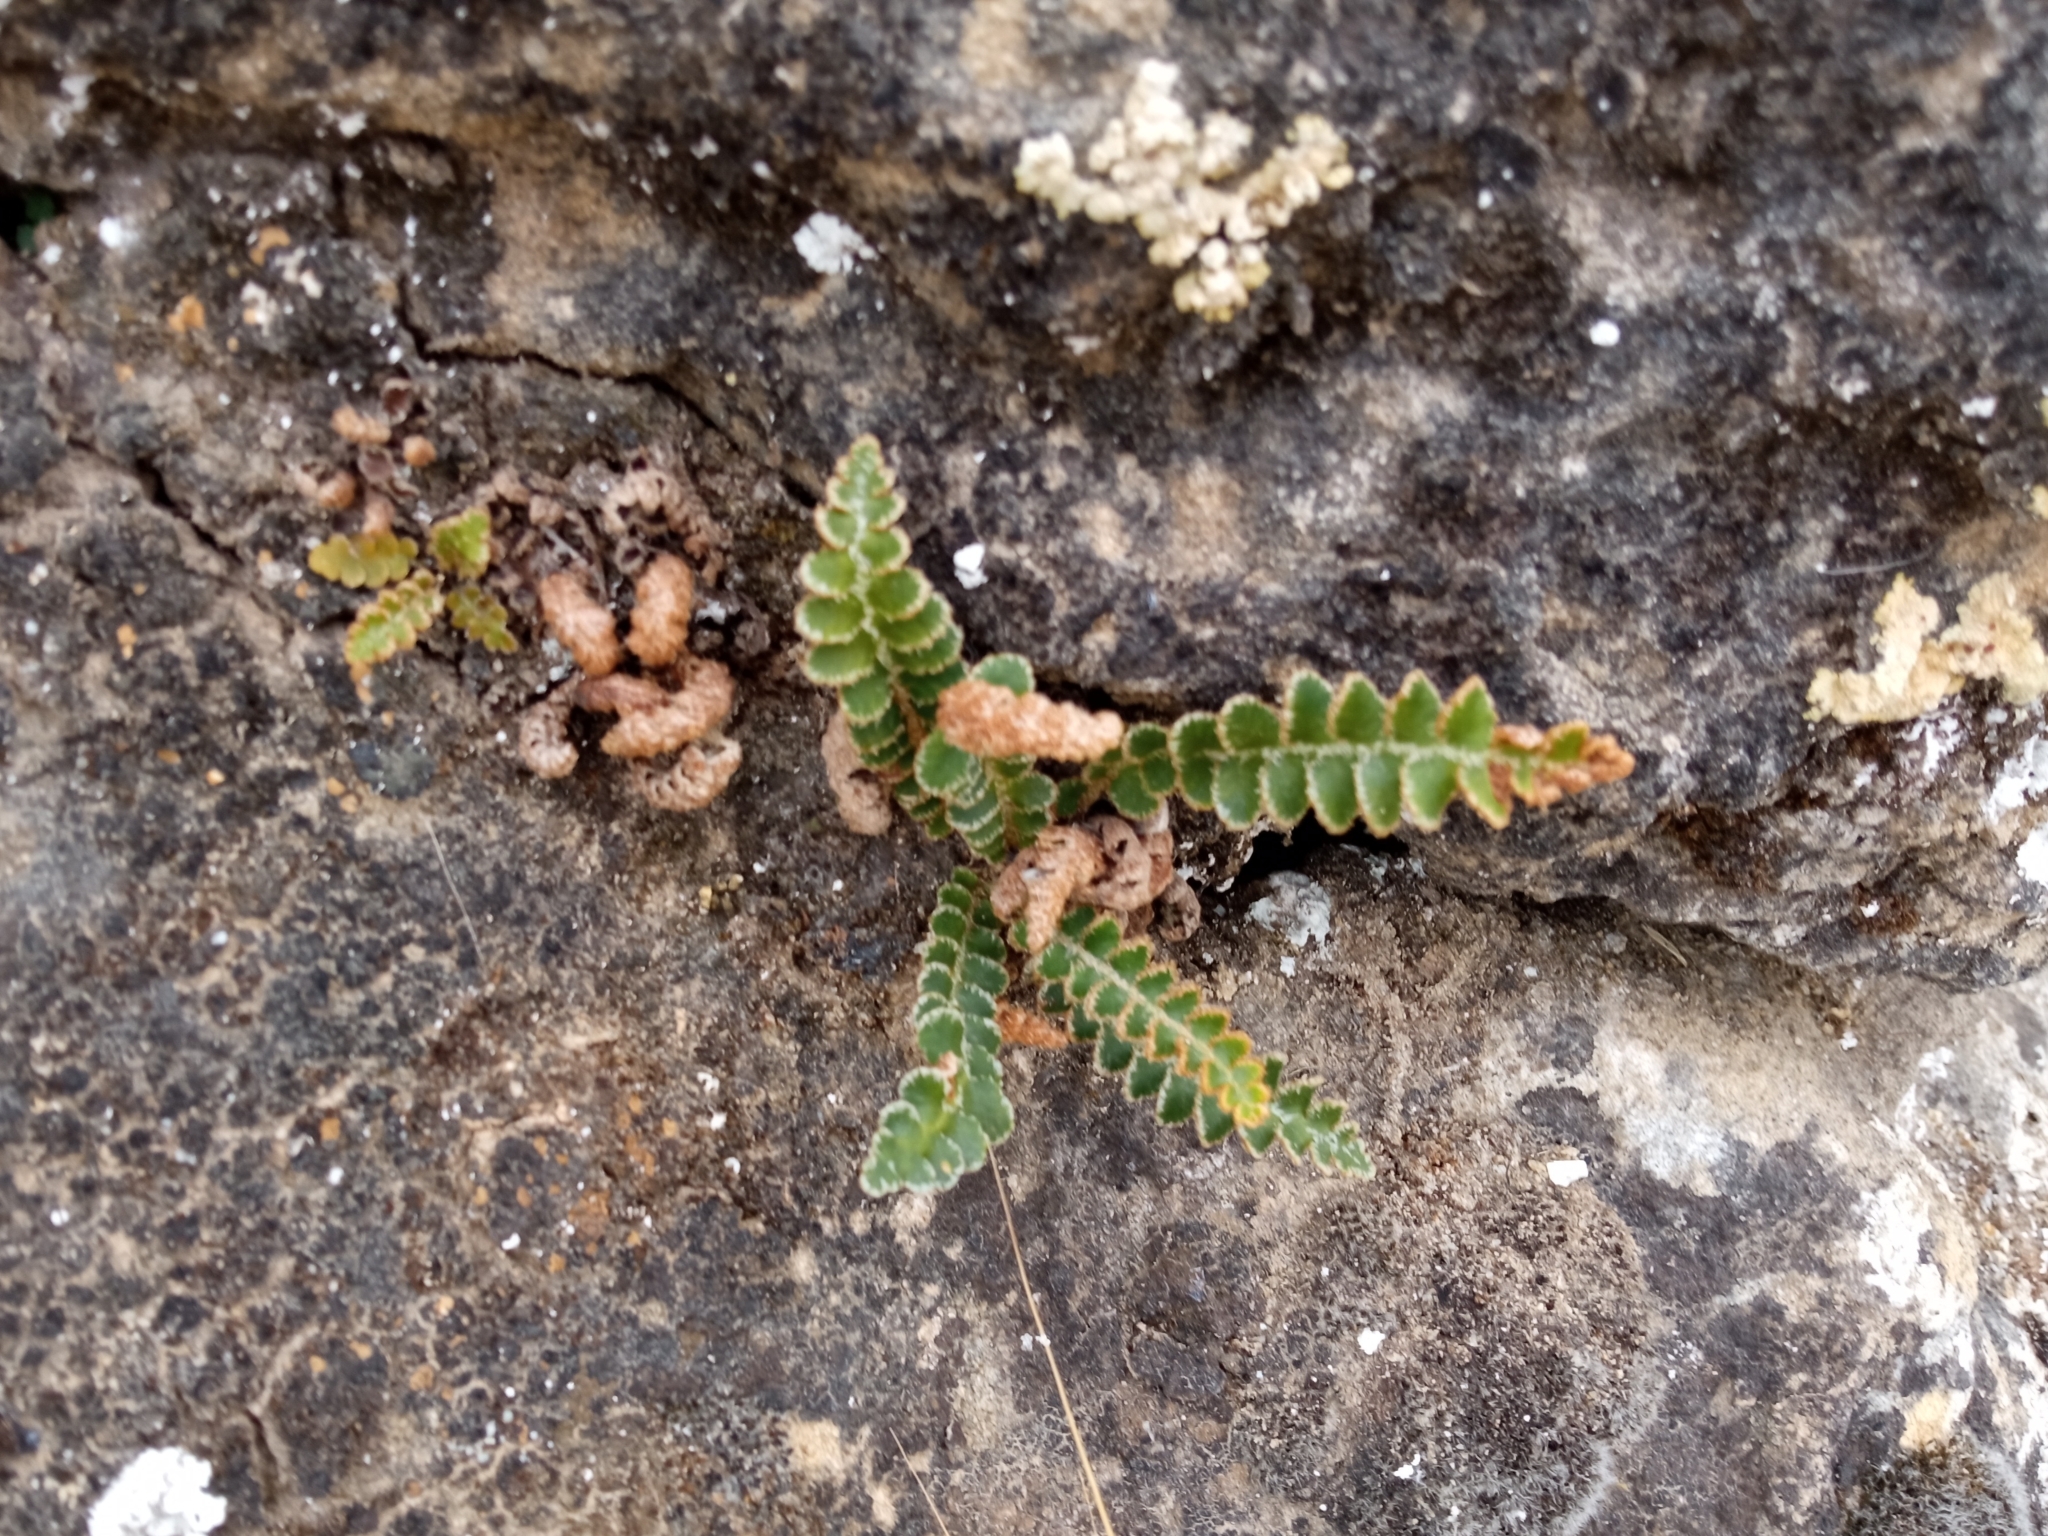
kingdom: Plantae
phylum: Tracheophyta
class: Polypodiopsida
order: Polypodiales
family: Aspleniaceae
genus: Asplenium
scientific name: Asplenium ceterach
